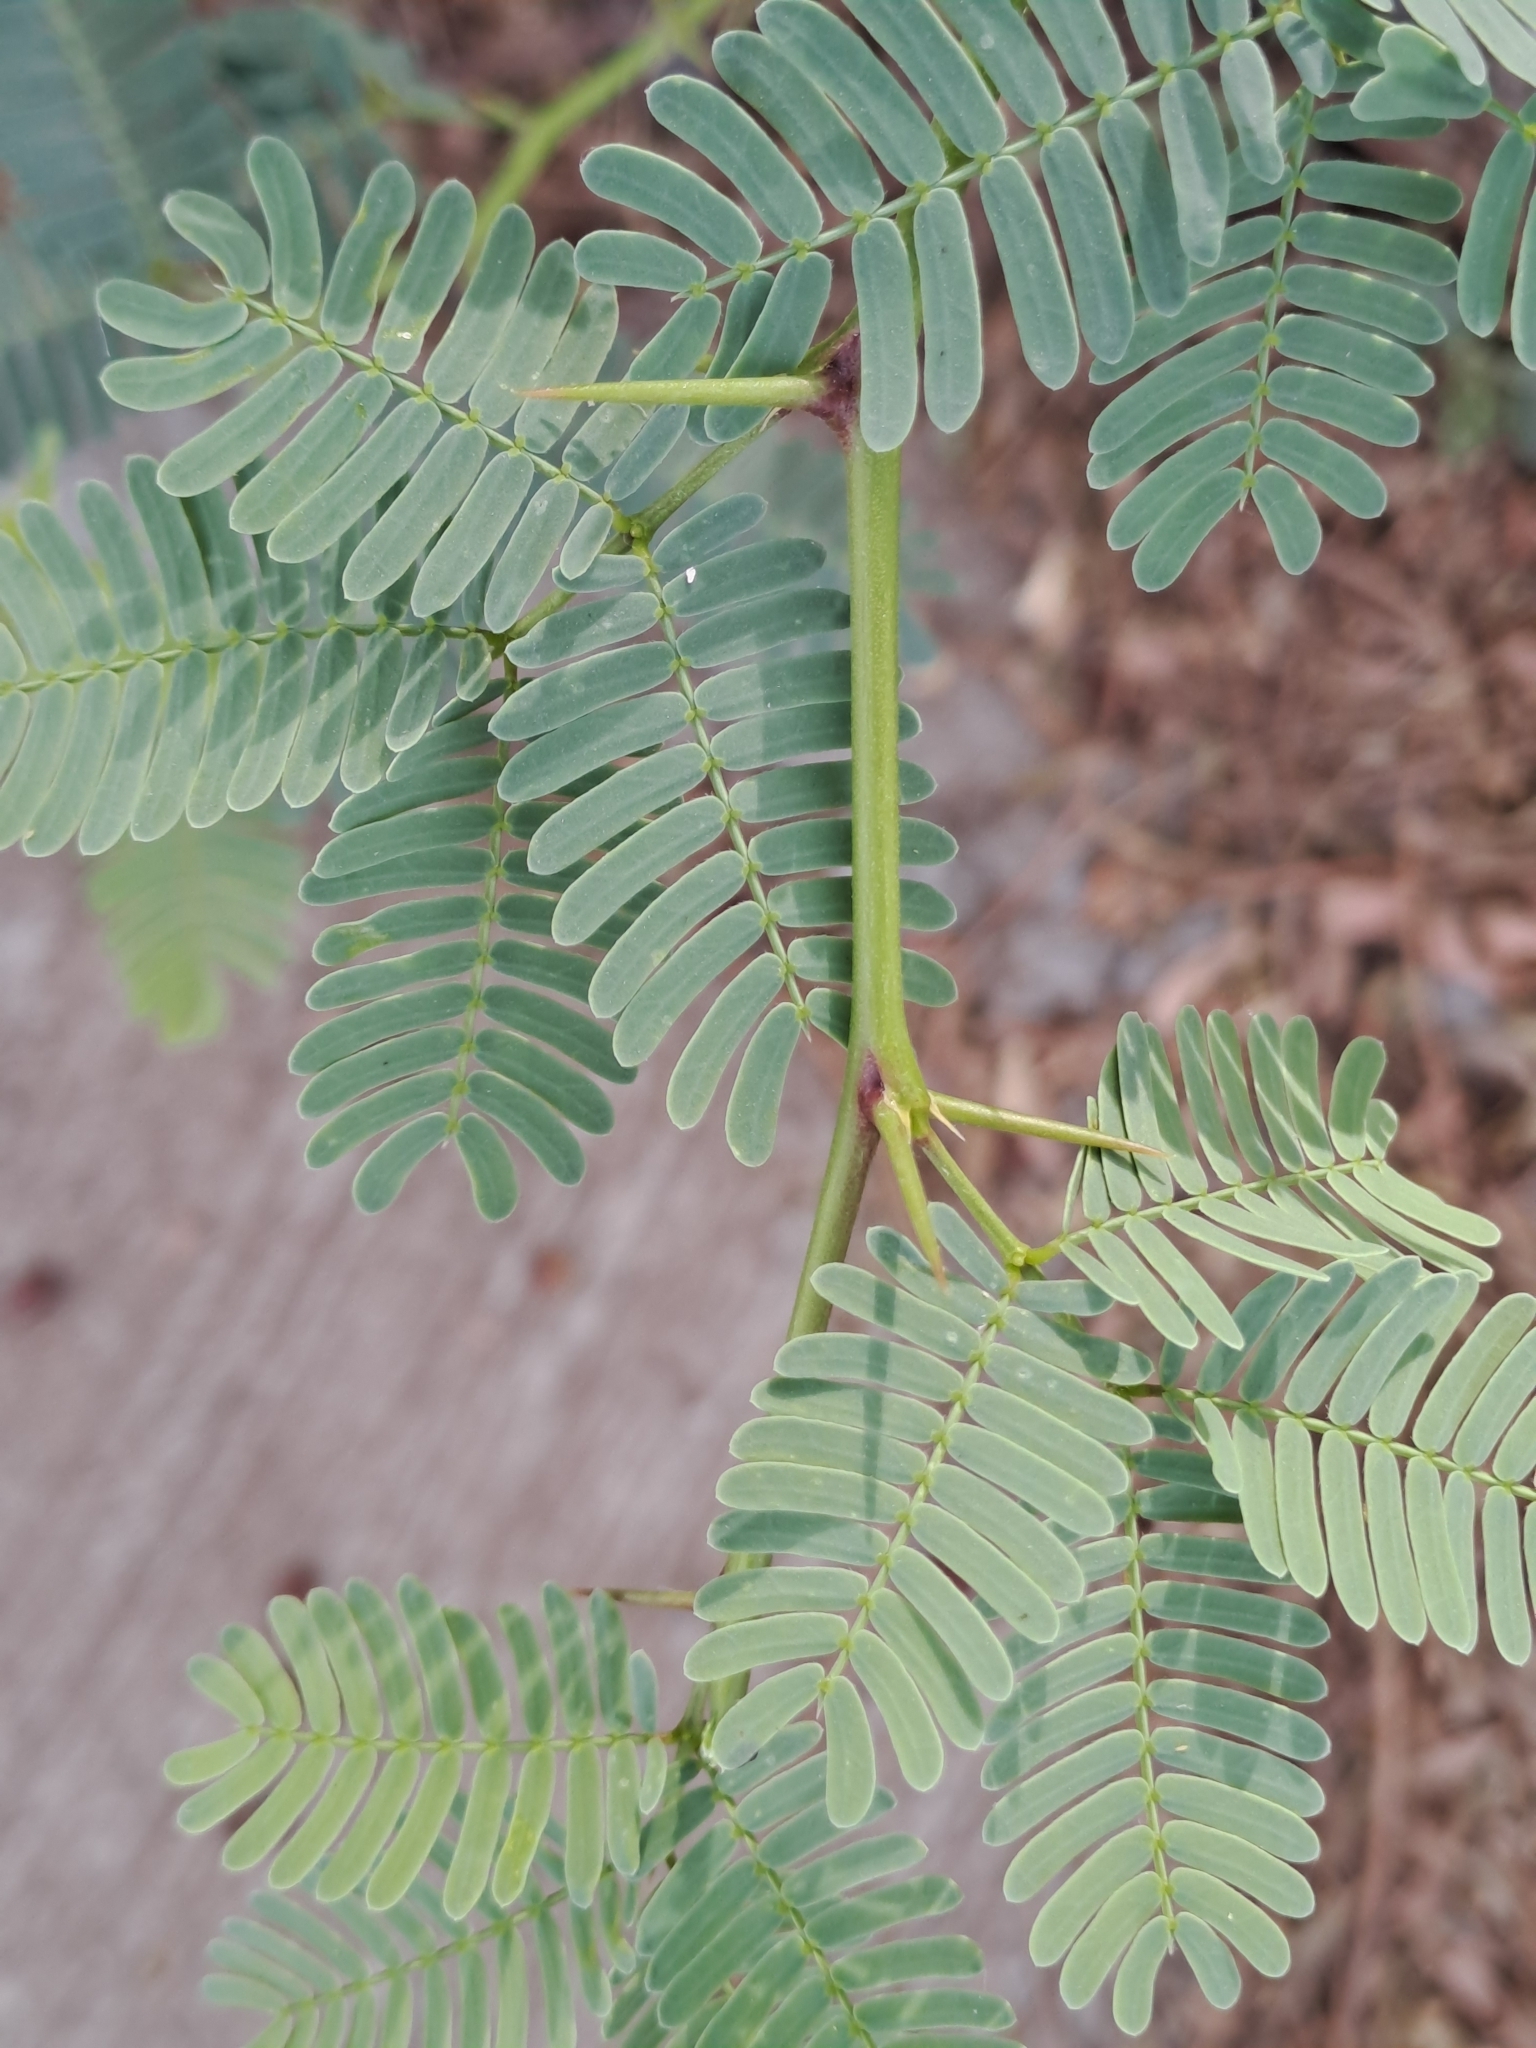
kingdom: Plantae
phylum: Tracheophyta
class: Magnoliopsida
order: Fabales
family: Fabaceae
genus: Prosopis
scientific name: Prosopis juliflora
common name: Mesquite
